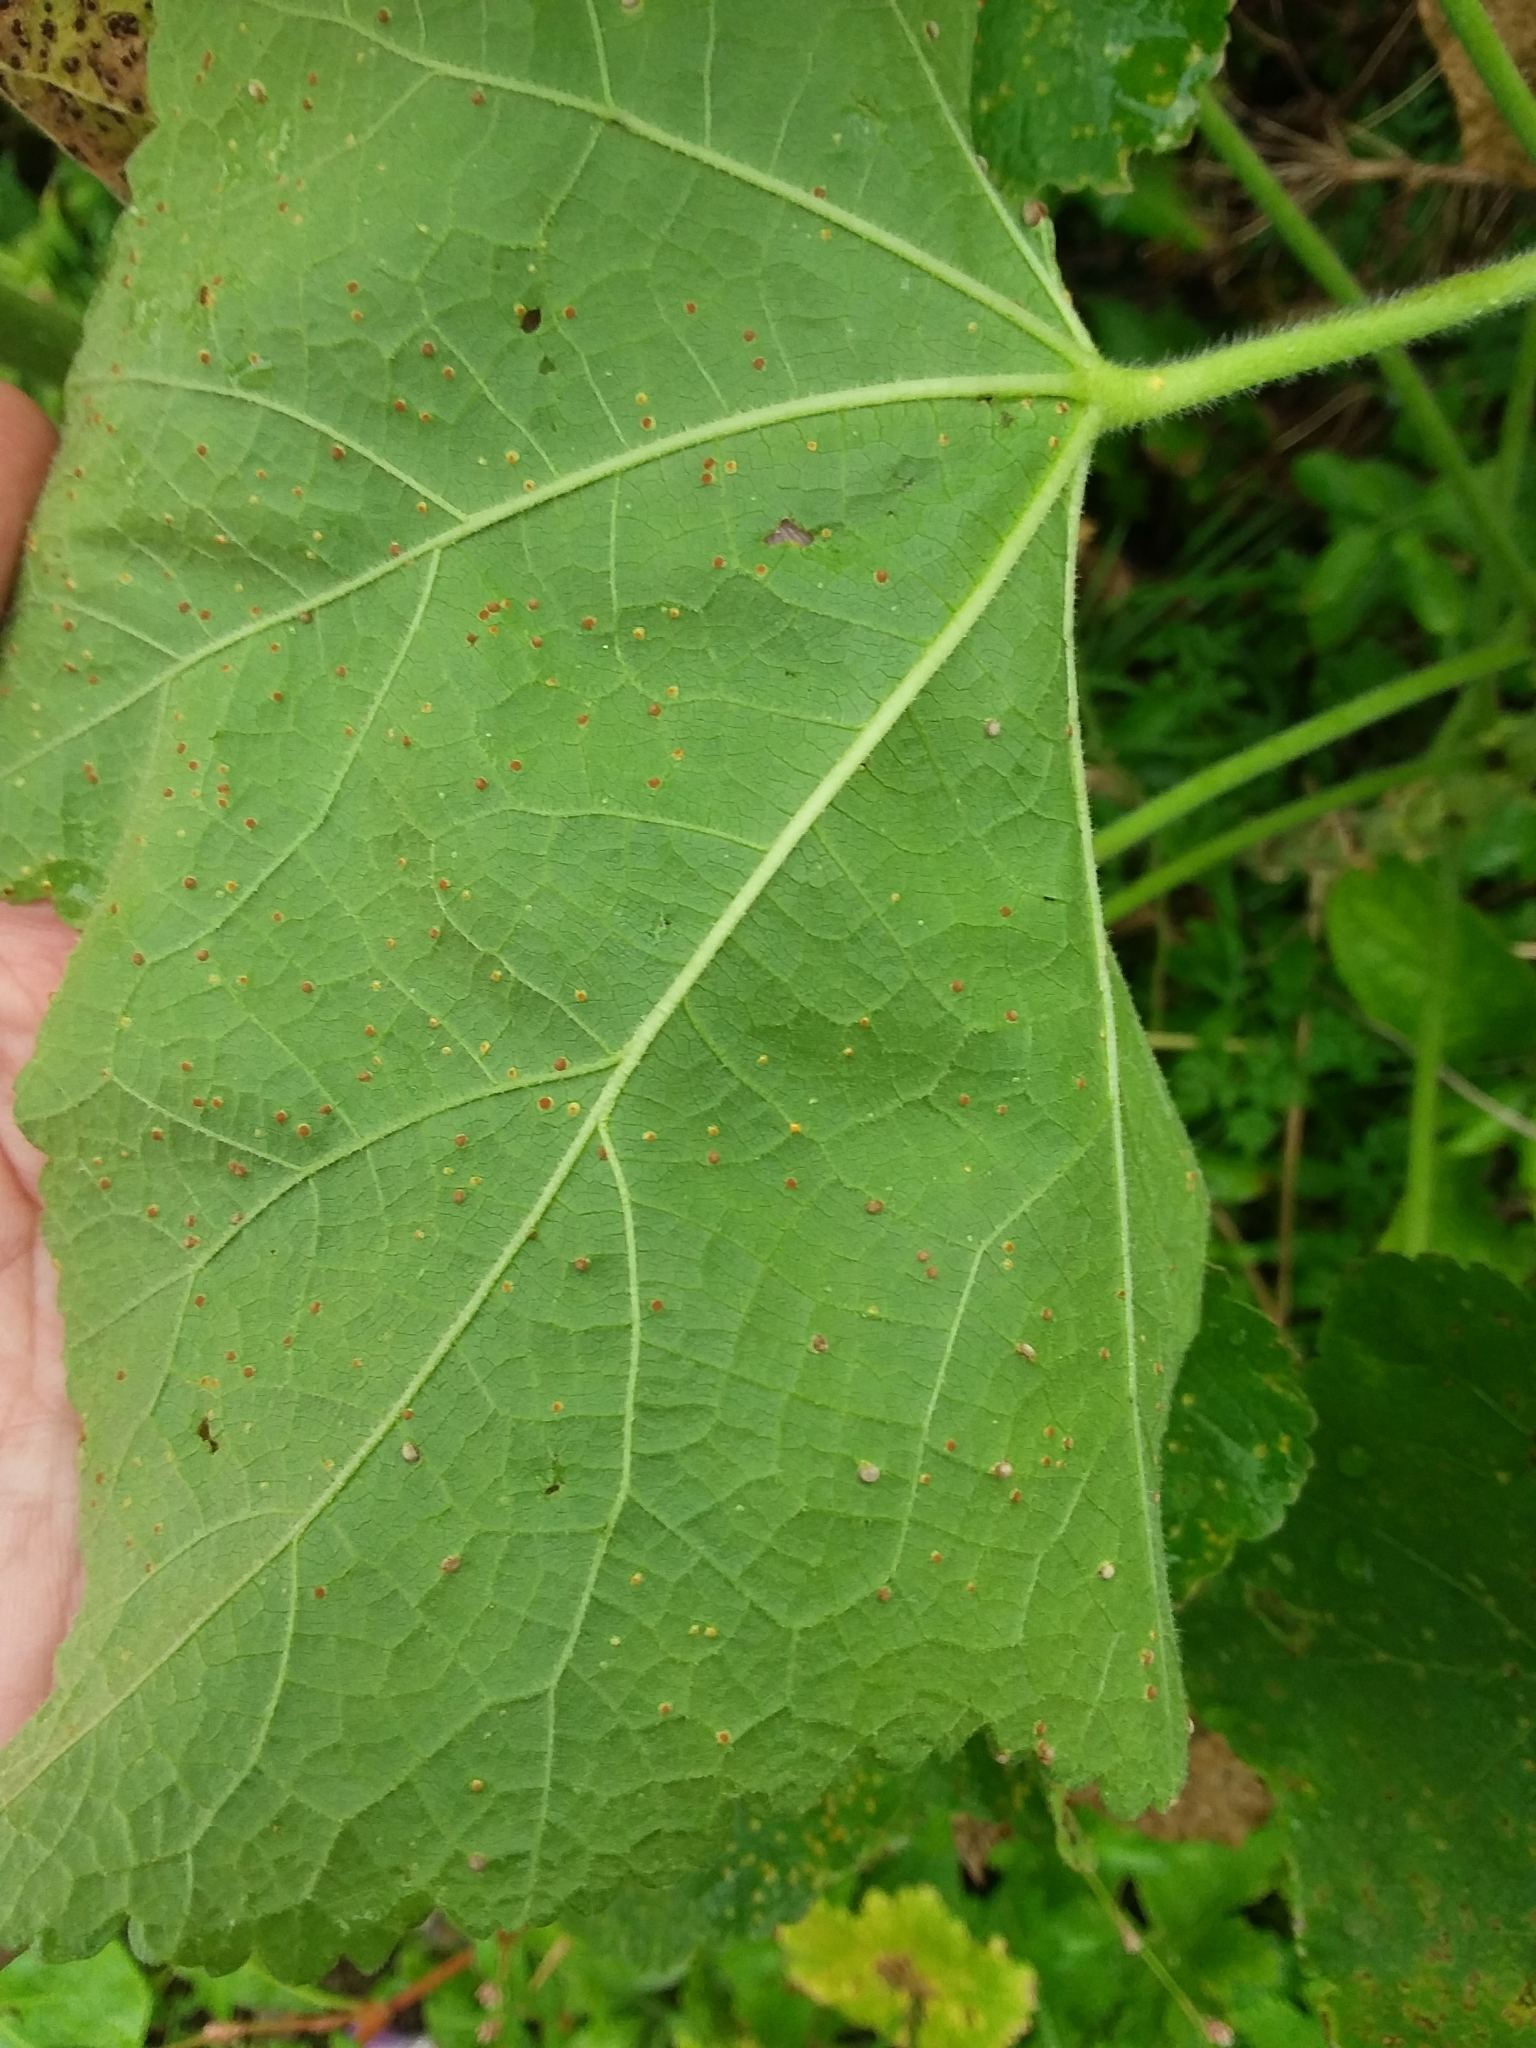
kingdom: Fungi
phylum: Basidiomycota
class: Pucciniomycetes
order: Pucciniales
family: Pucciniaceae
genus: Puccinia
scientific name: Puccinia malvacearum
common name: Hollyhock rust
